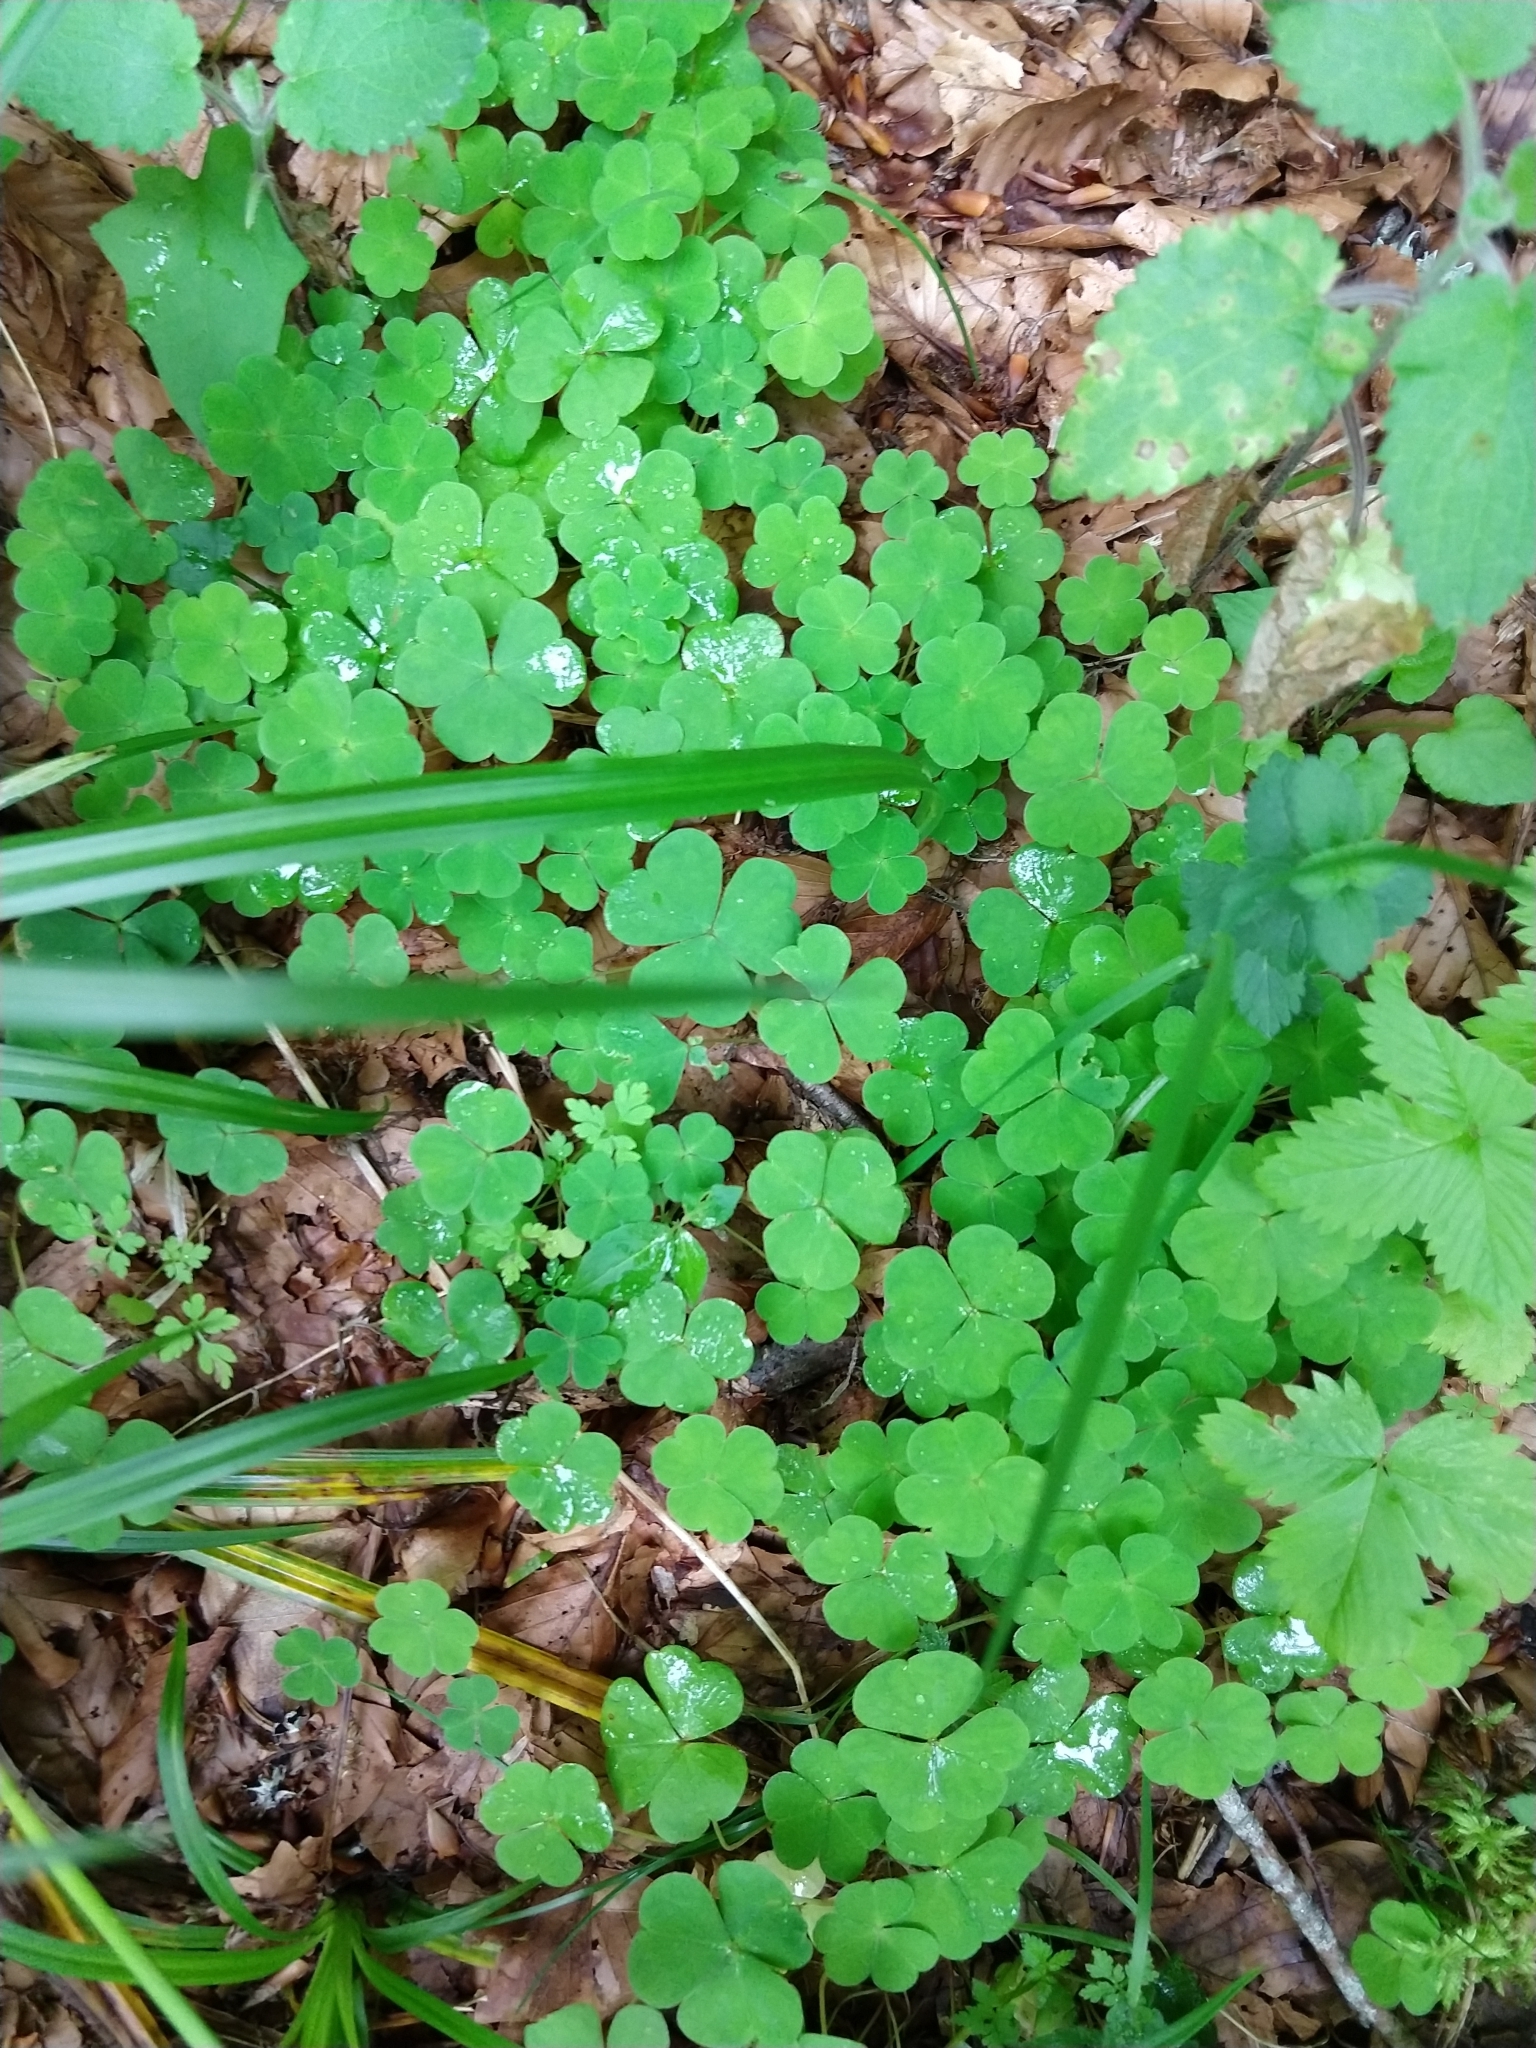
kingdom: Plantae
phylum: Tracheophyta
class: Magnoliopsida
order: Oxalidales
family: Oxalidaceae
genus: Oxalis
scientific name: Oxalis acetosella
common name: Wood-sorrel
